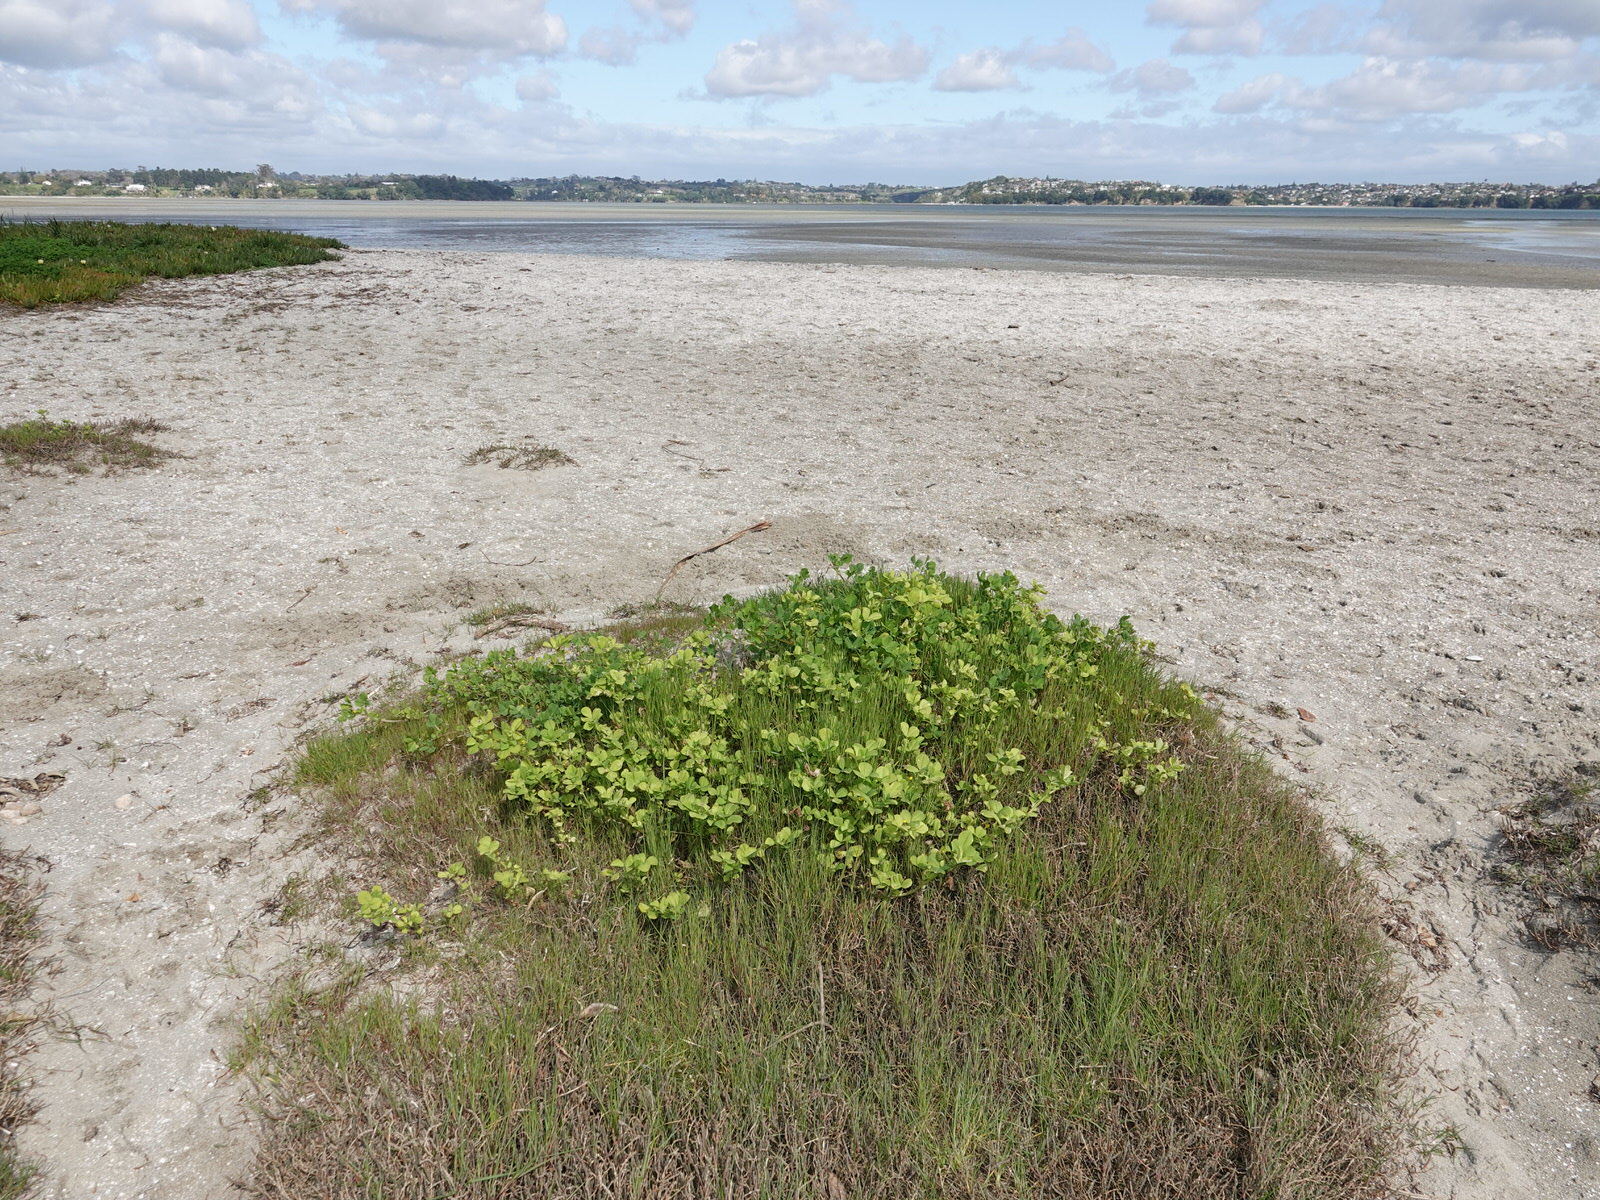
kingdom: Plantae
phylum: Tracheophyta
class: Magnoliopsida
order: Fabales
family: Fabaceae
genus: Medicago
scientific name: Medicago polymorpha
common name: Burclover
